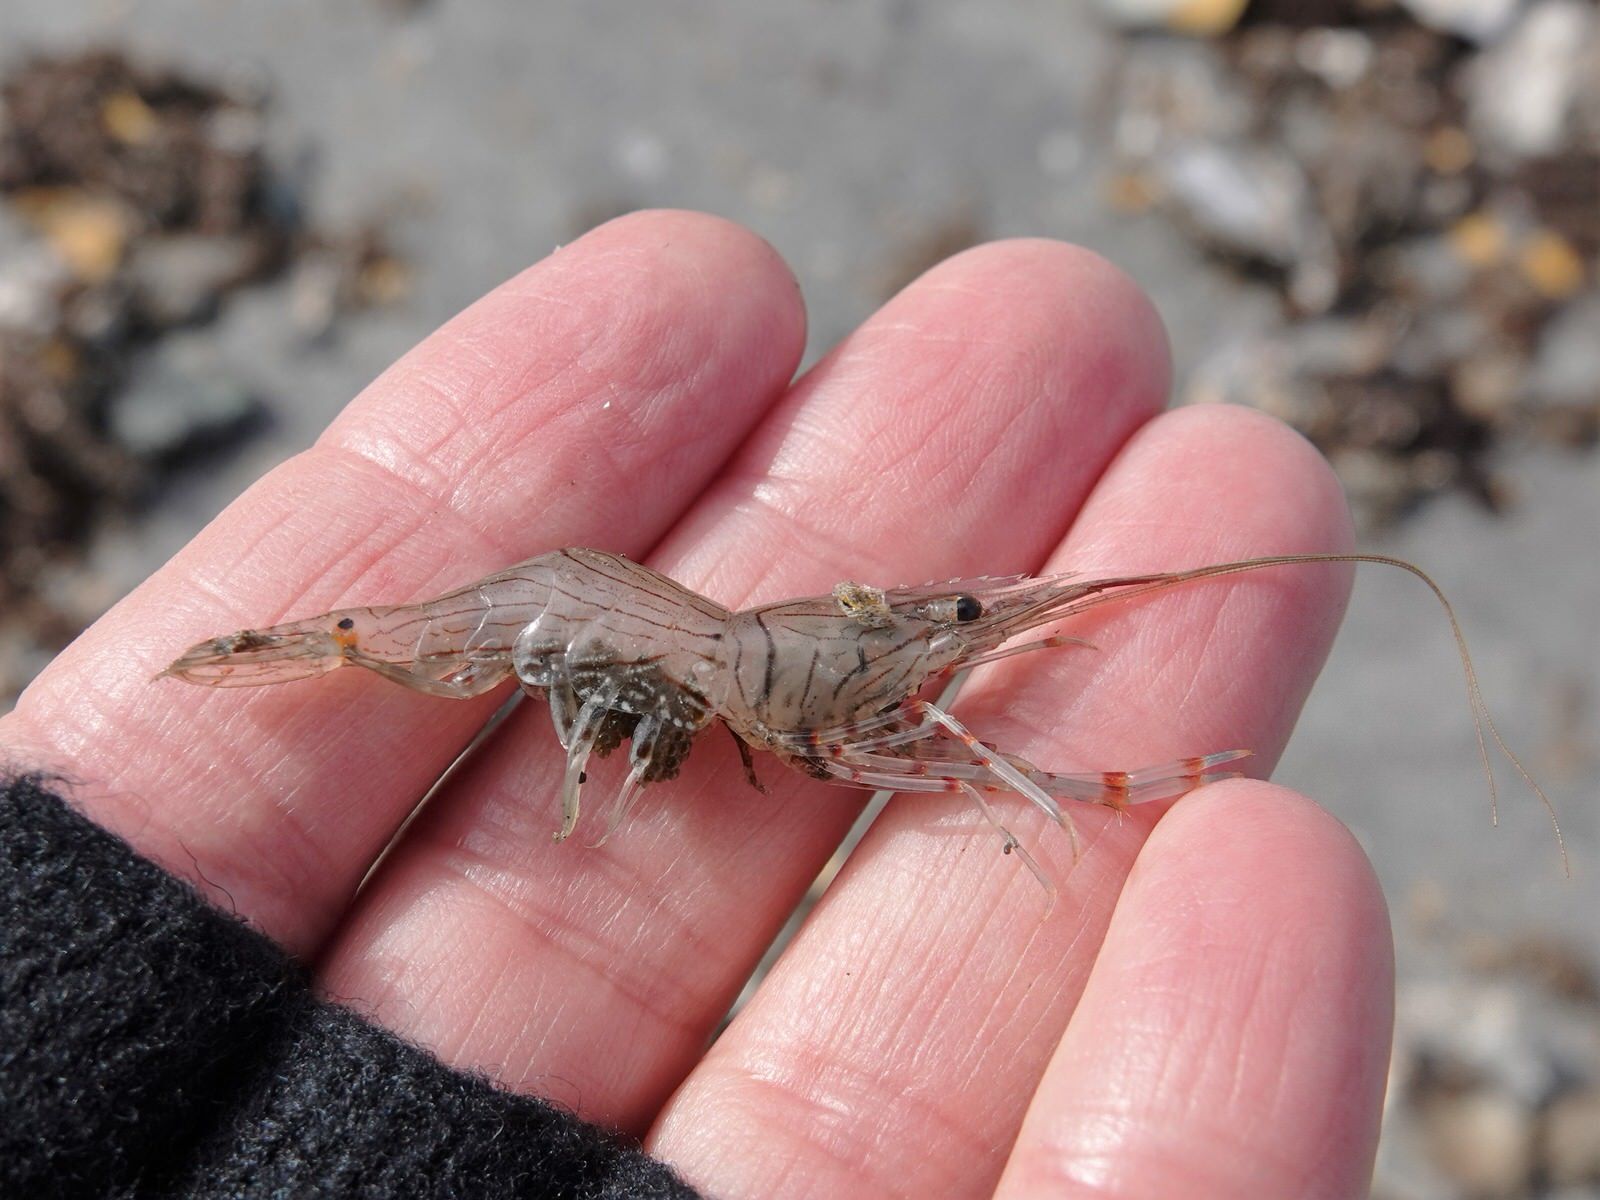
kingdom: Animalia
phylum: Arthropoda
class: Malacostraca
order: Decapoda
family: Palaemonidae
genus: Palaemon
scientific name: Palaemon affinis
